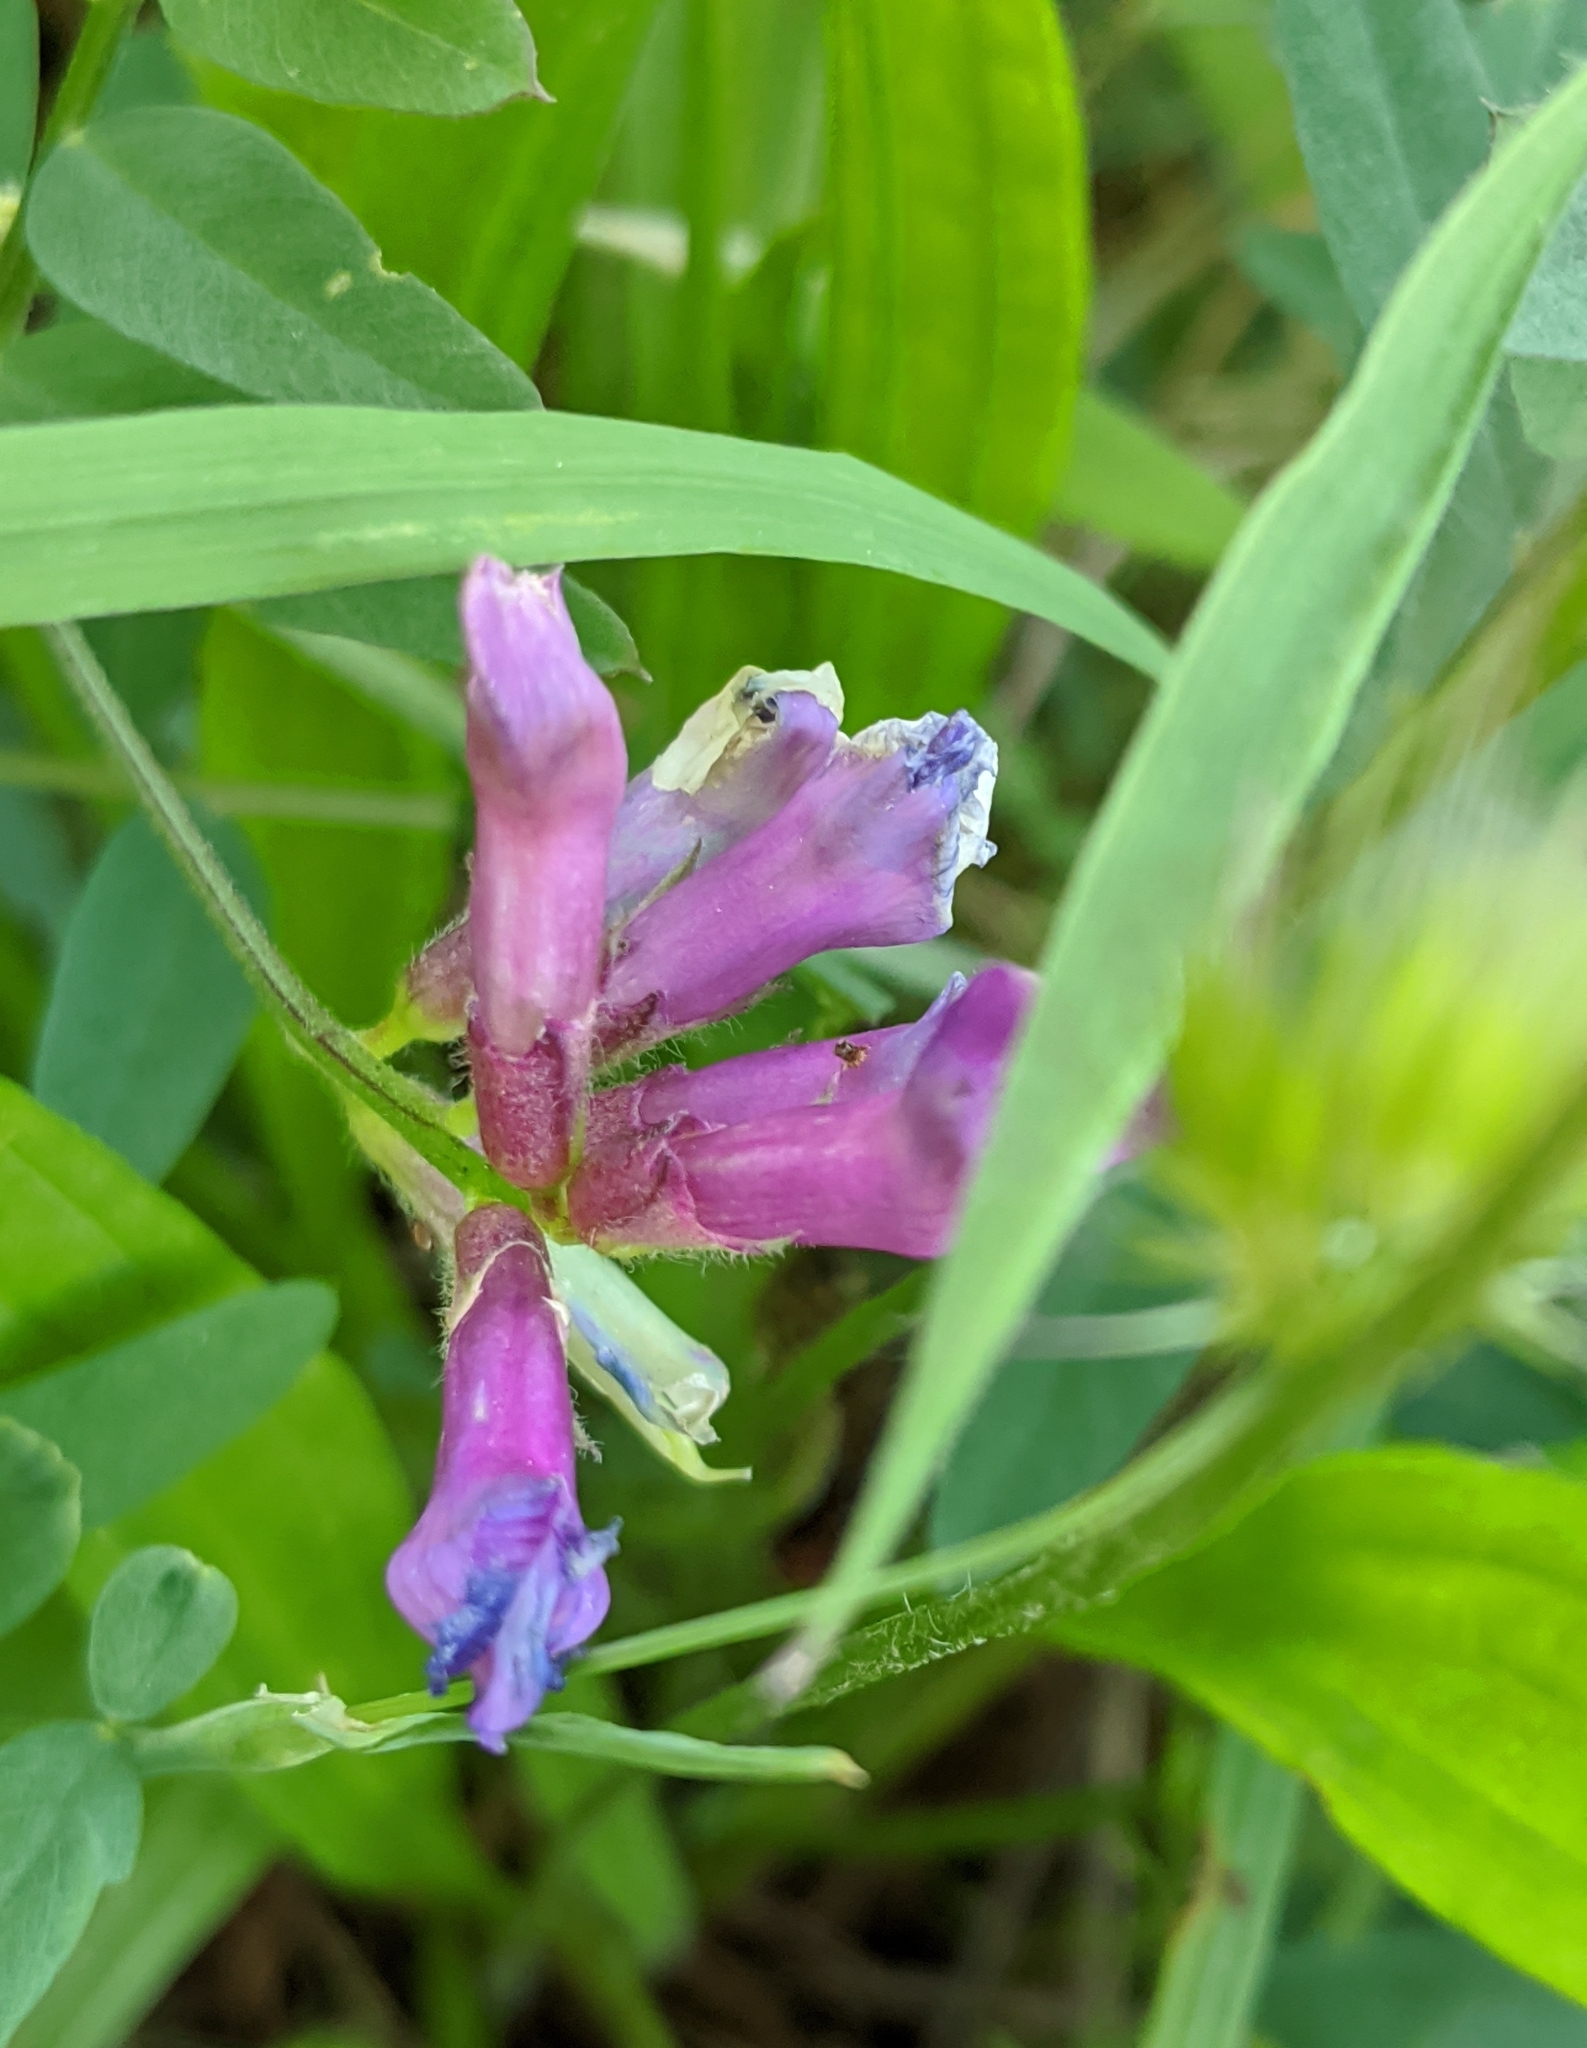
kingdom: Plantae
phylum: Tracheophyta
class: Magnoliopsida
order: Fabales
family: Fabaceae
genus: Vicia
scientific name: Vicia americana
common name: American vetch
